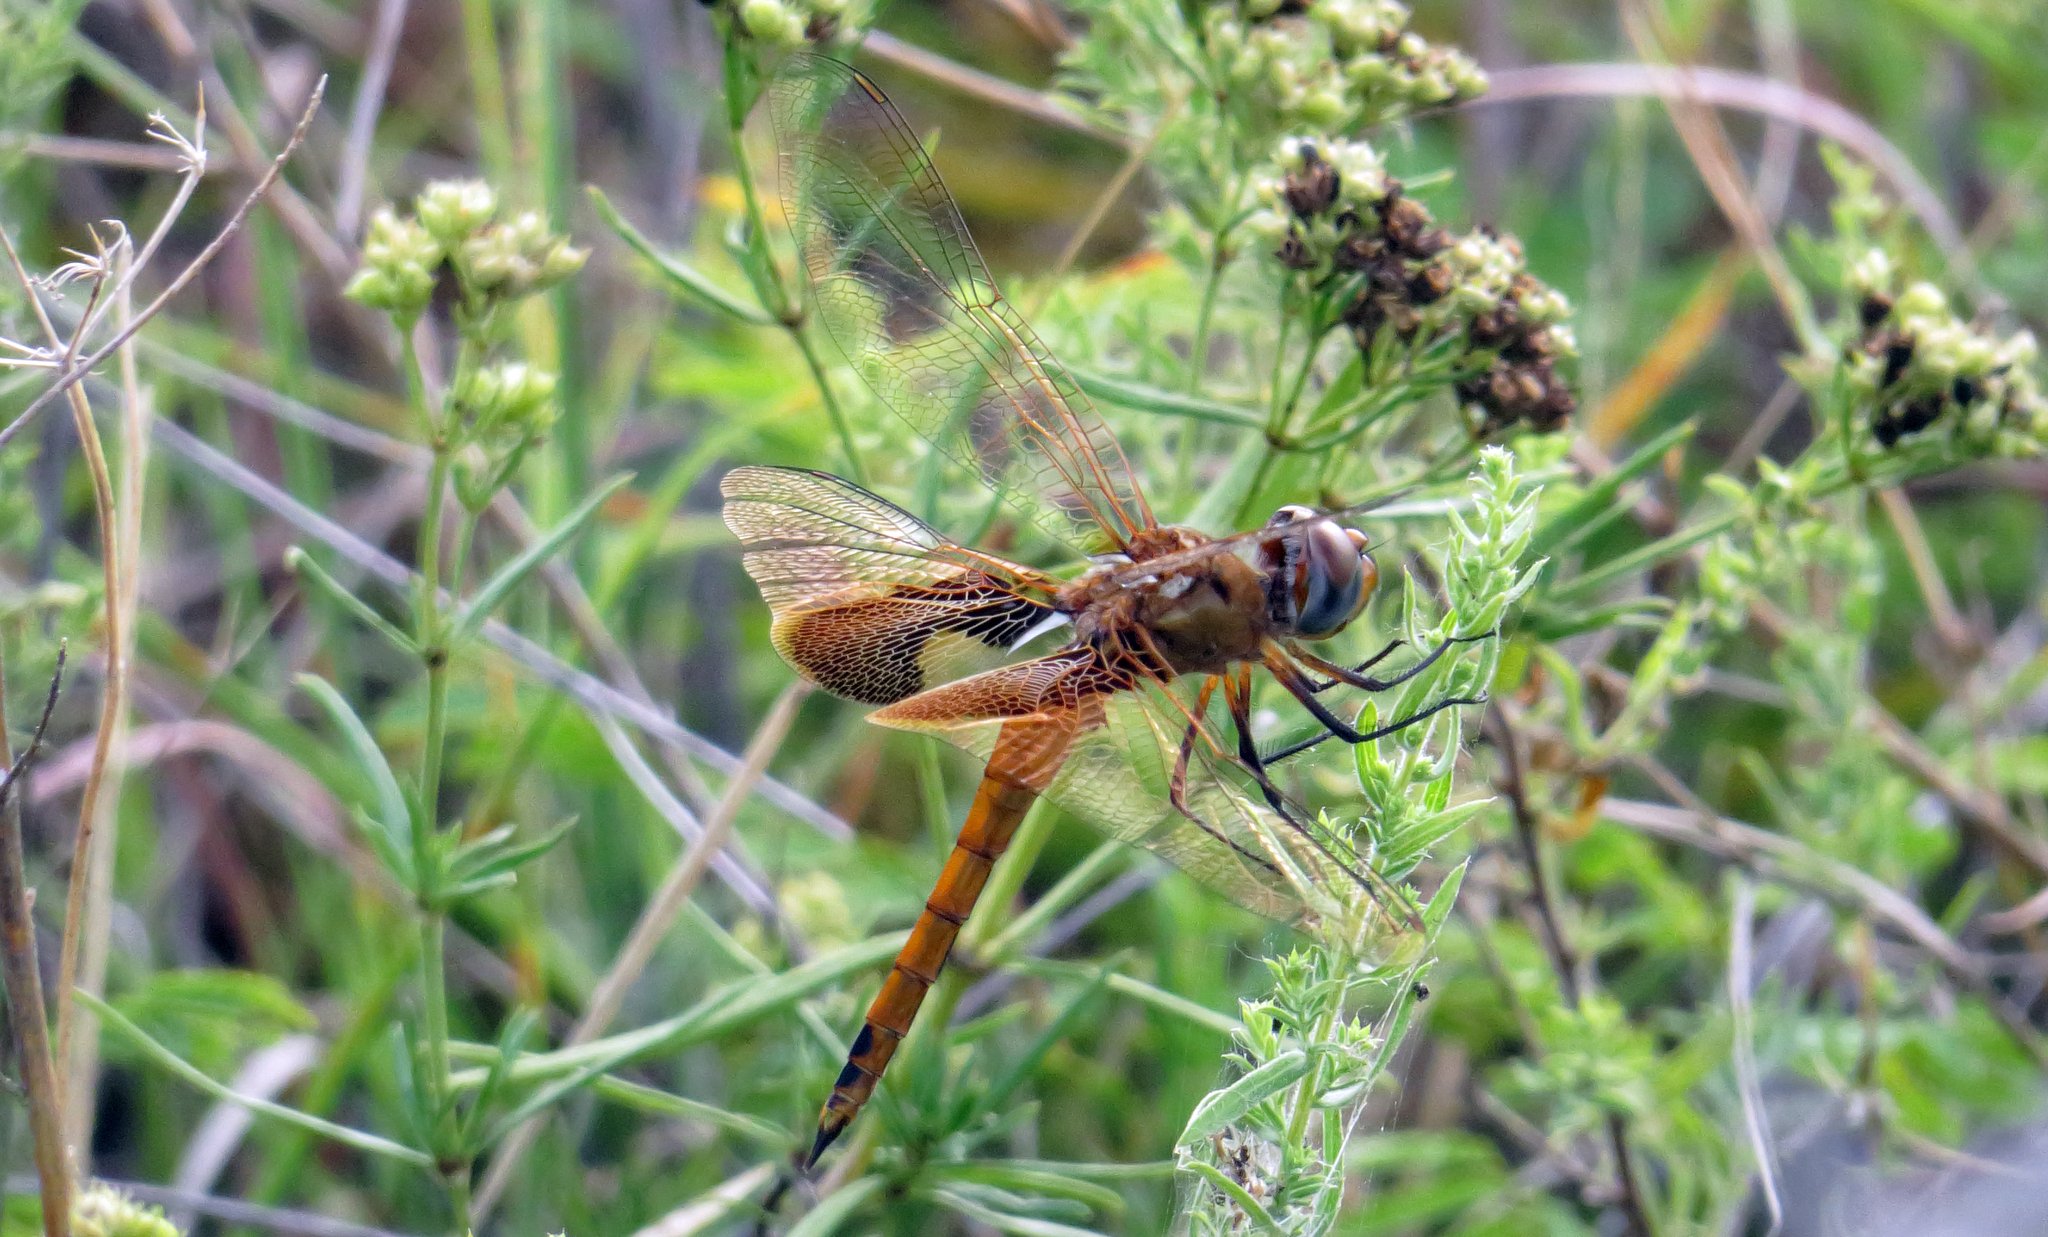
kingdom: Animalia
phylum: Arthropoda
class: Insecta
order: Odonata
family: Libellulidae
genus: Tramea
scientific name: Tramea onusta
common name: Red saddlebags
